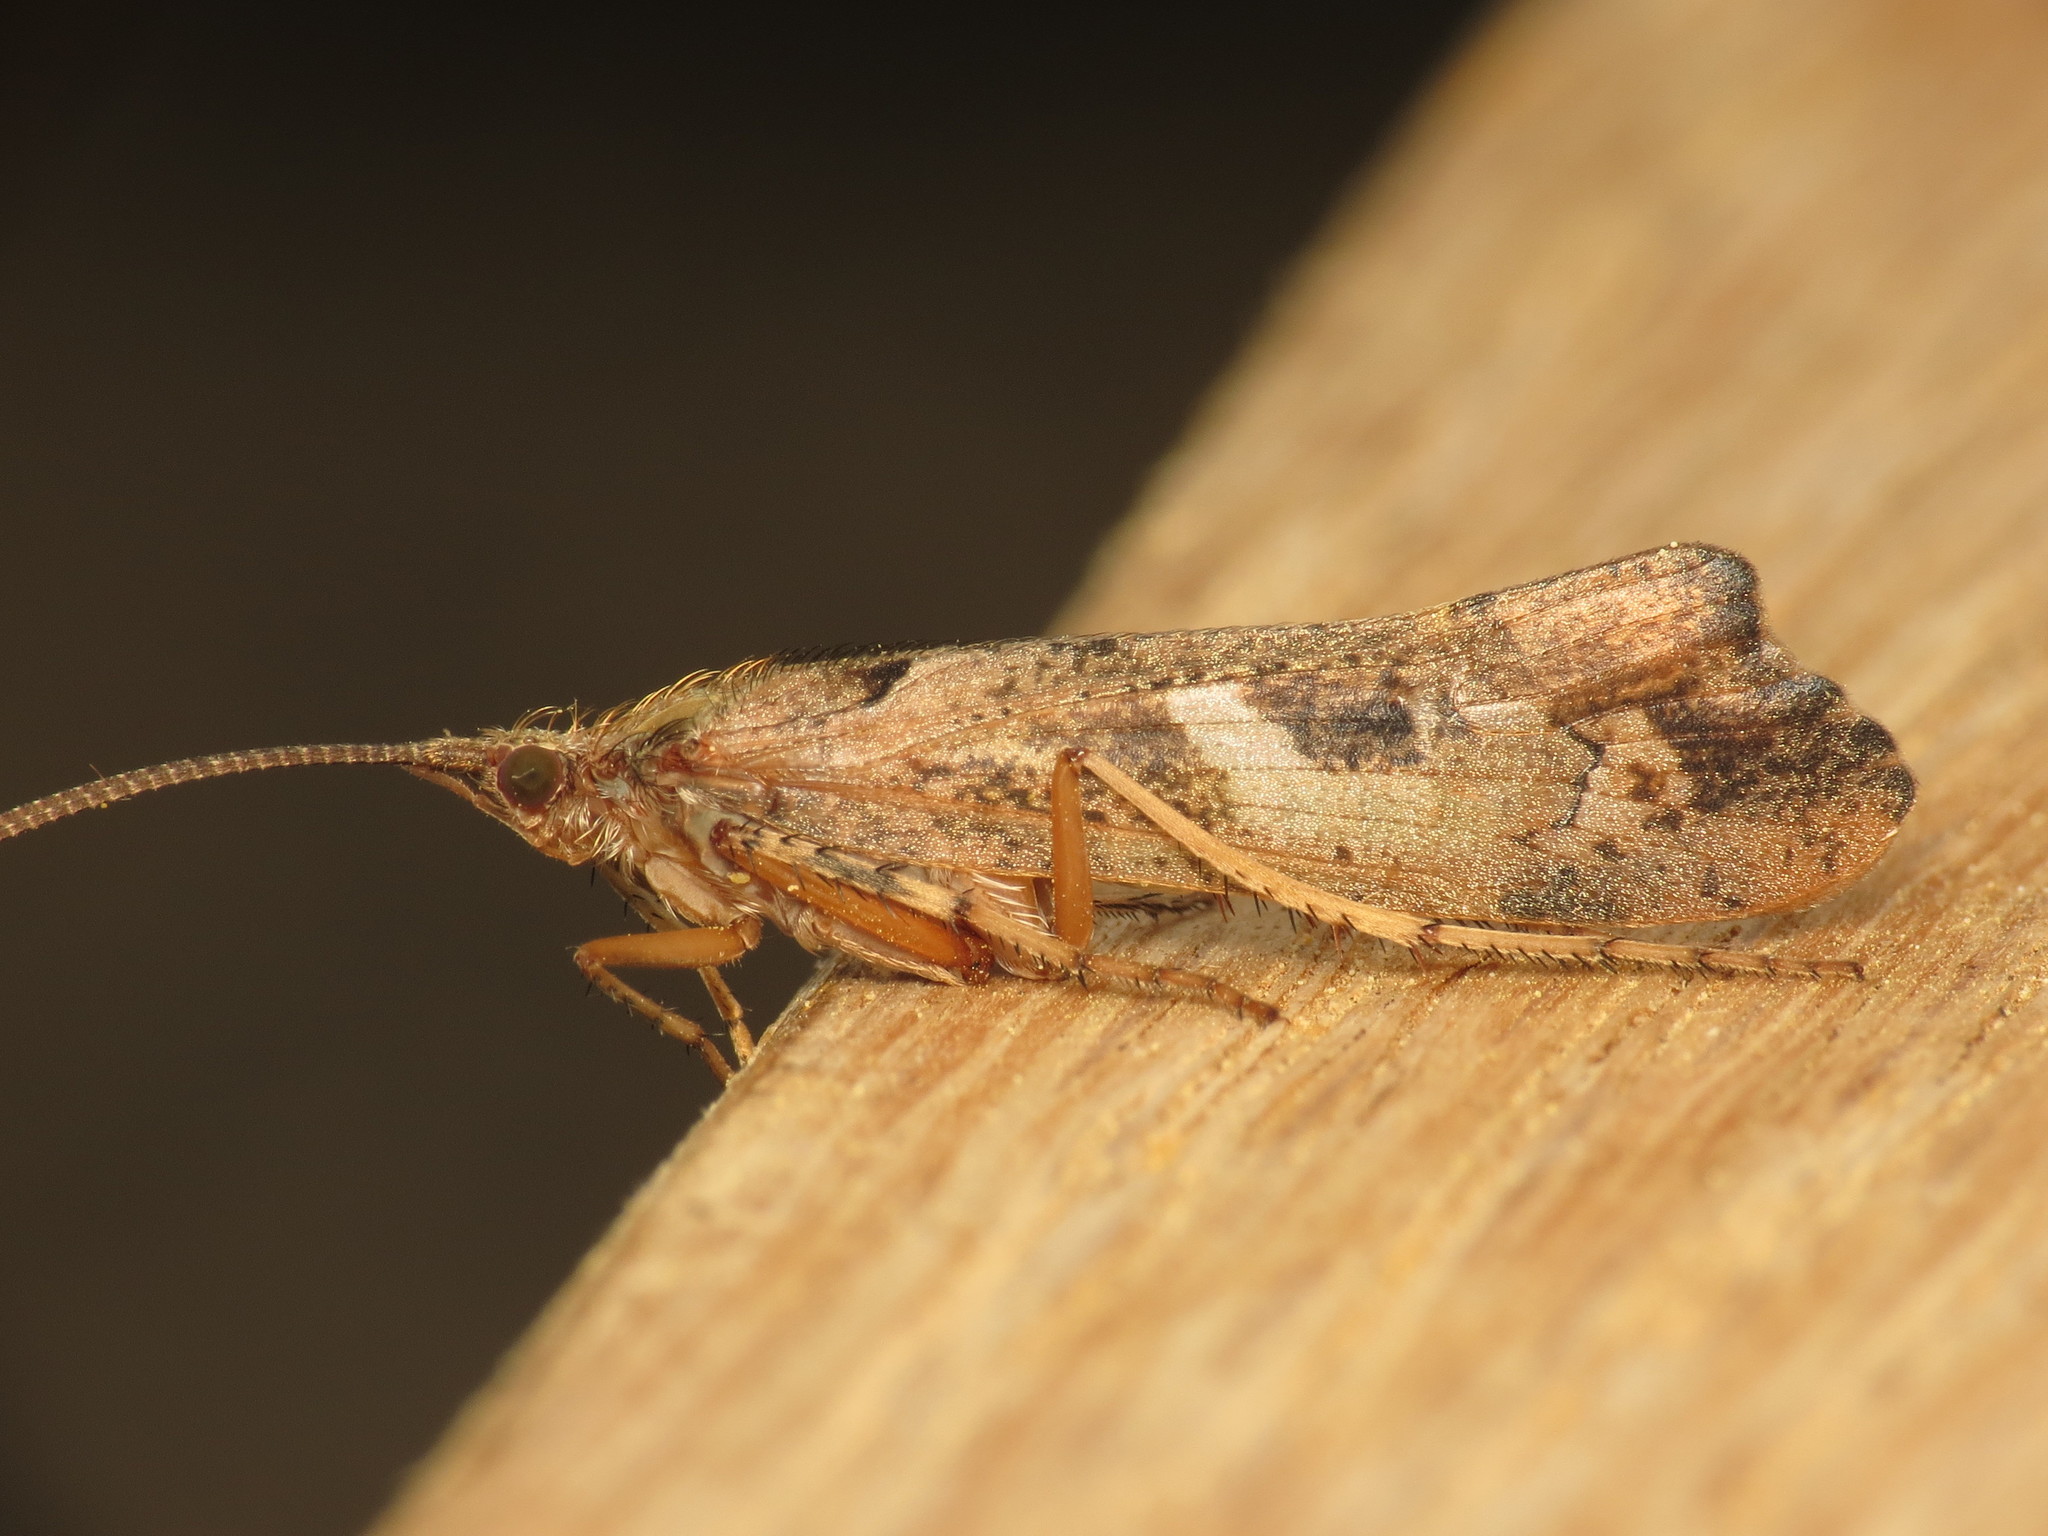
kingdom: Animalia
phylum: Arthropoda
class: Insecta
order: Trichoptera
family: Limnephilidae
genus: Glyphotaelius
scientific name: Glyphotaelius pellucidus
